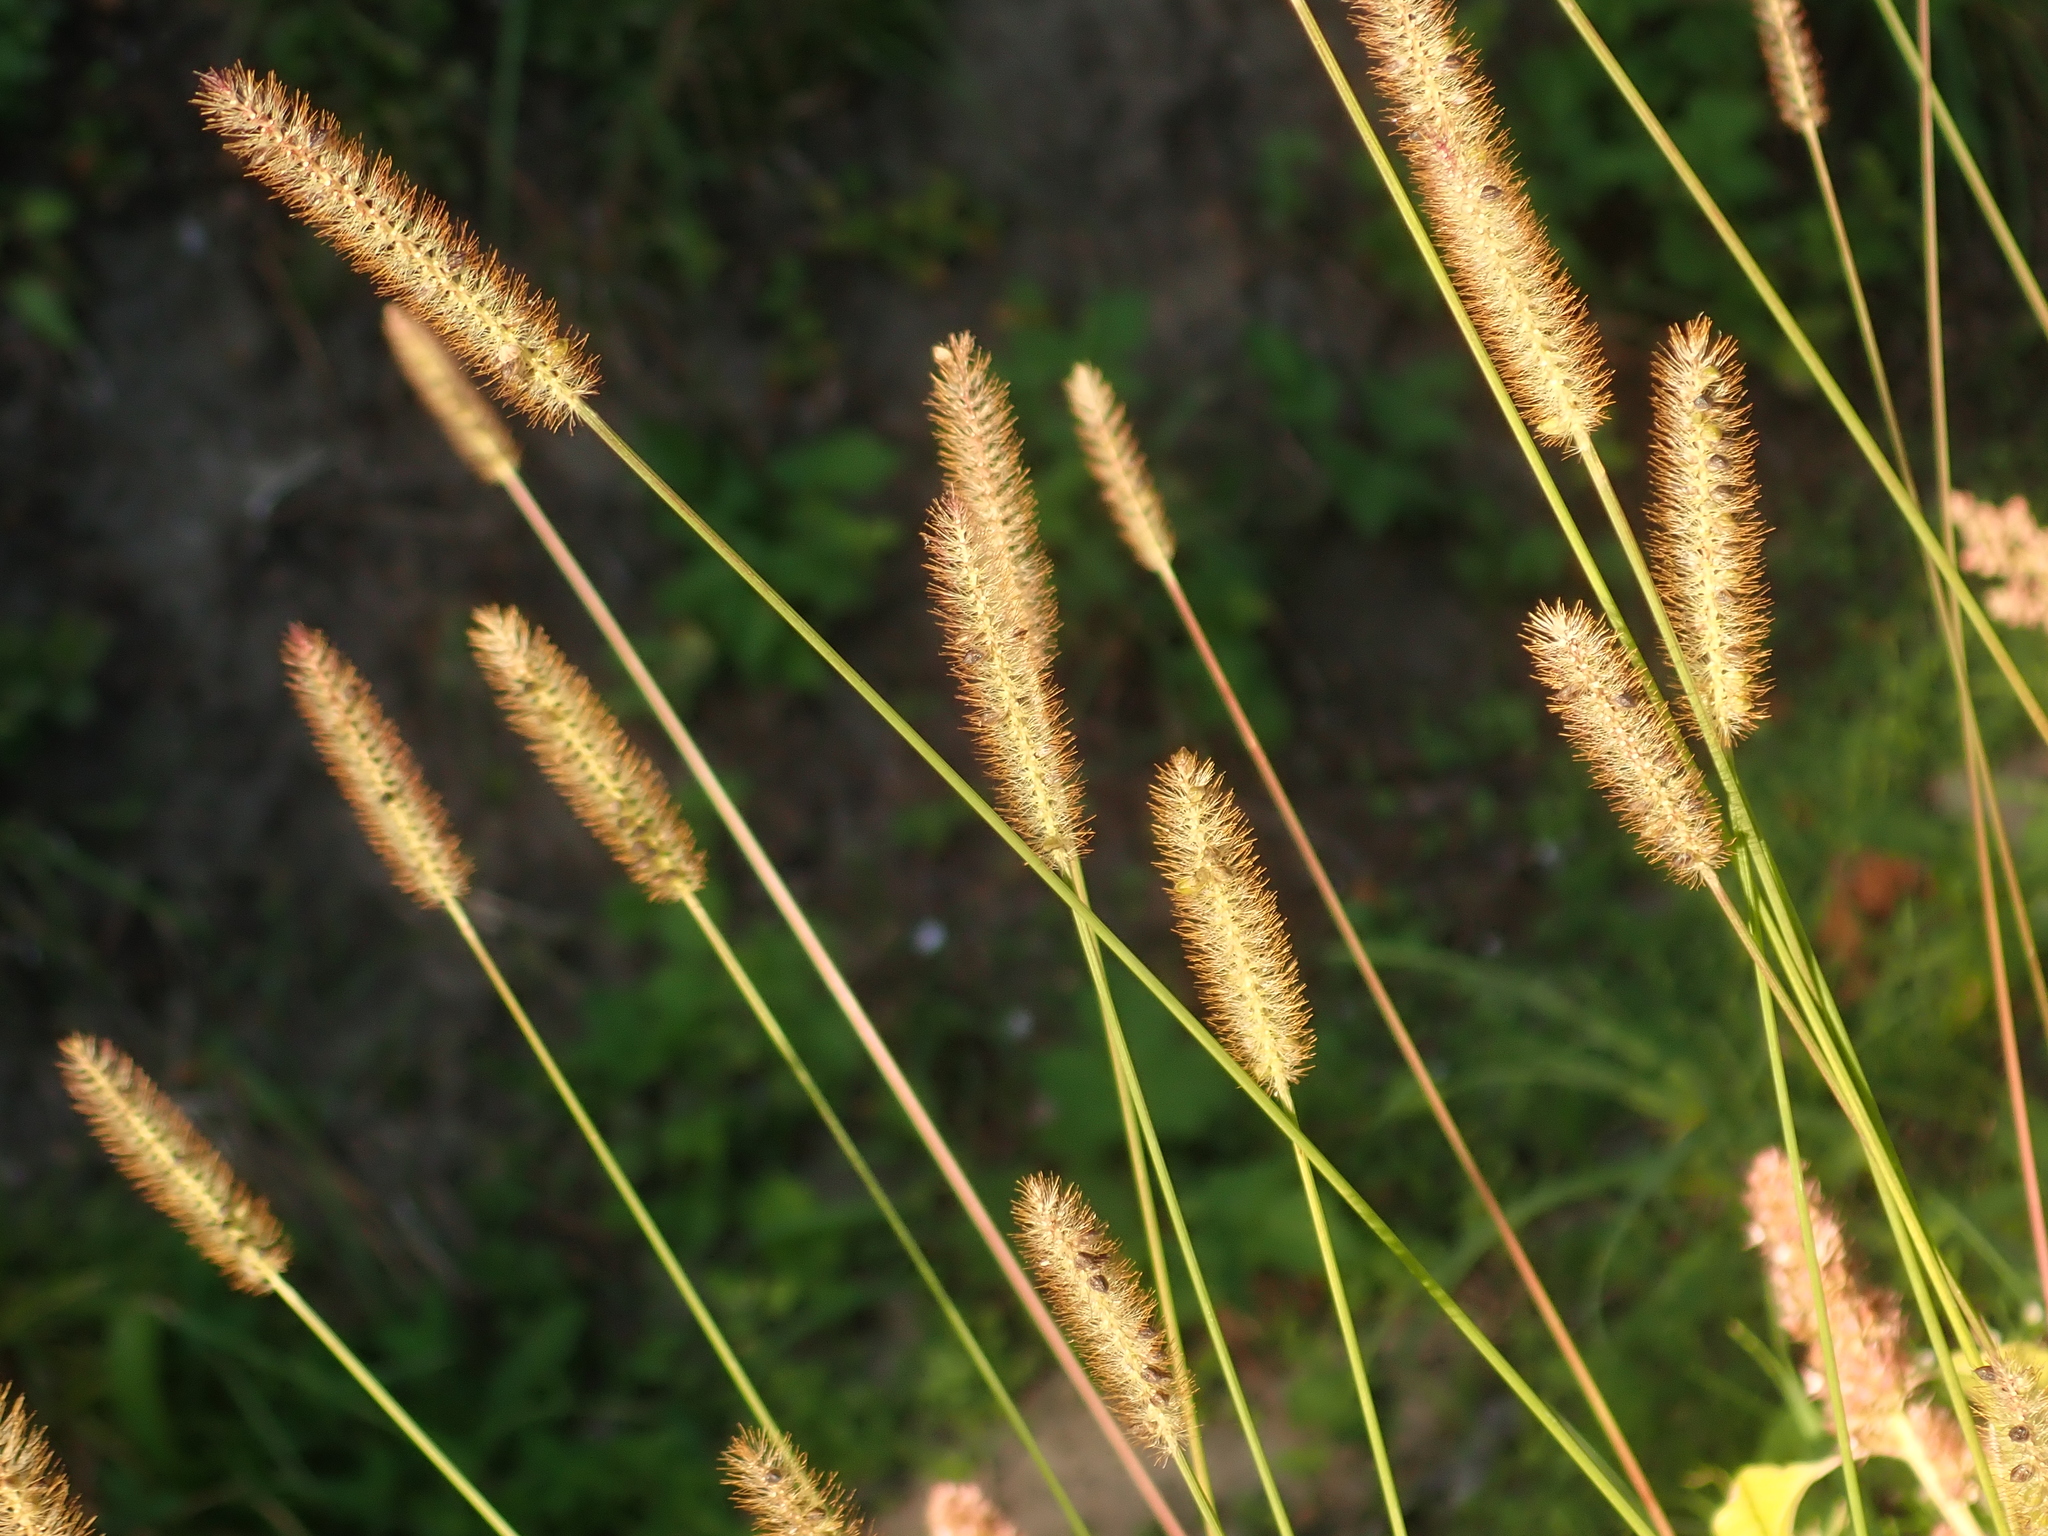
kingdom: Plantae
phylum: Tracheophyta
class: Liliopsida
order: Poales
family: Poaceae
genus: Setaria
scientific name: Setaria pumila
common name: Yellow bristle-grass
